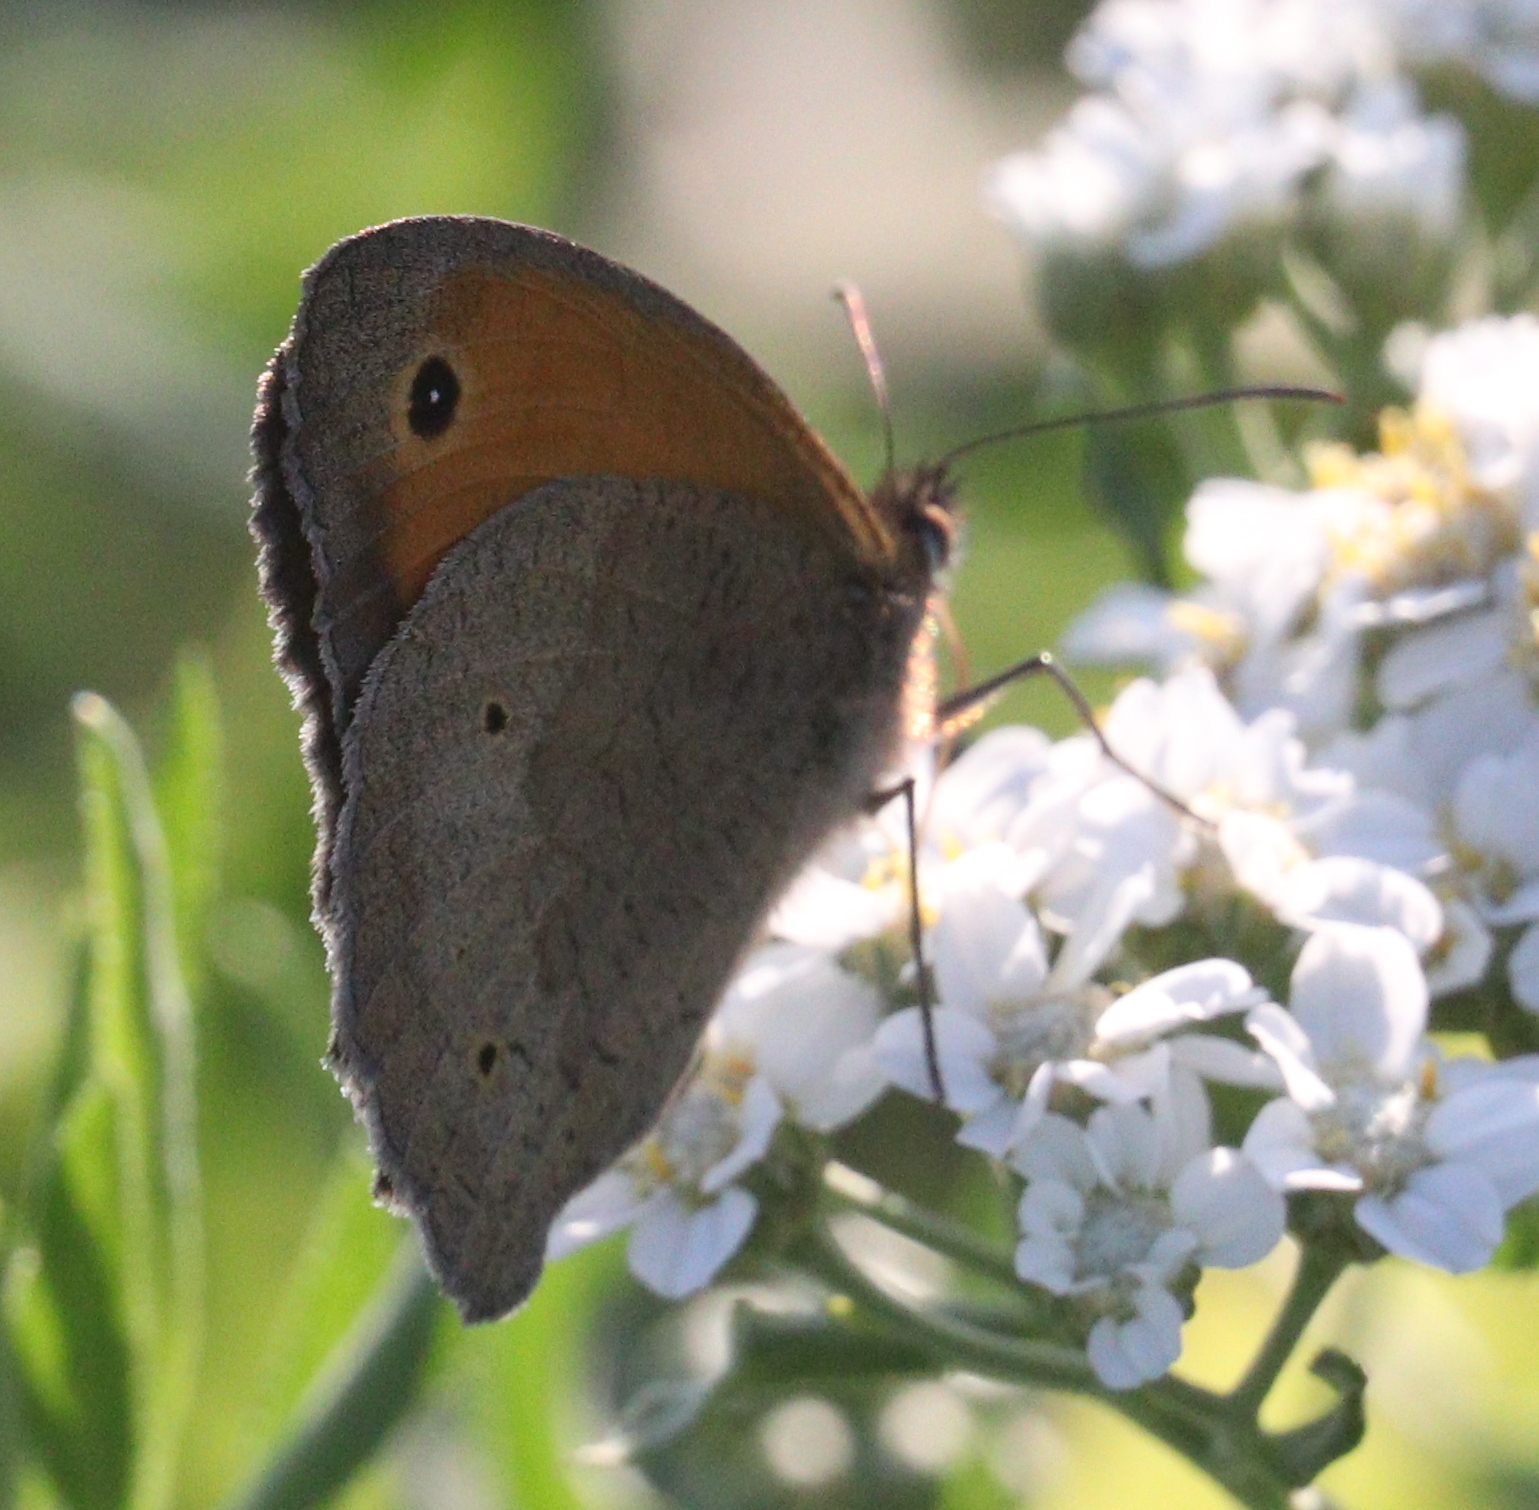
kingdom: Animalia
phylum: Arthropoda
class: Insecta
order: Lepidoptera
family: Nymphalidae
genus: Maniola
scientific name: Maniola jurtina
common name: Meadow brown
